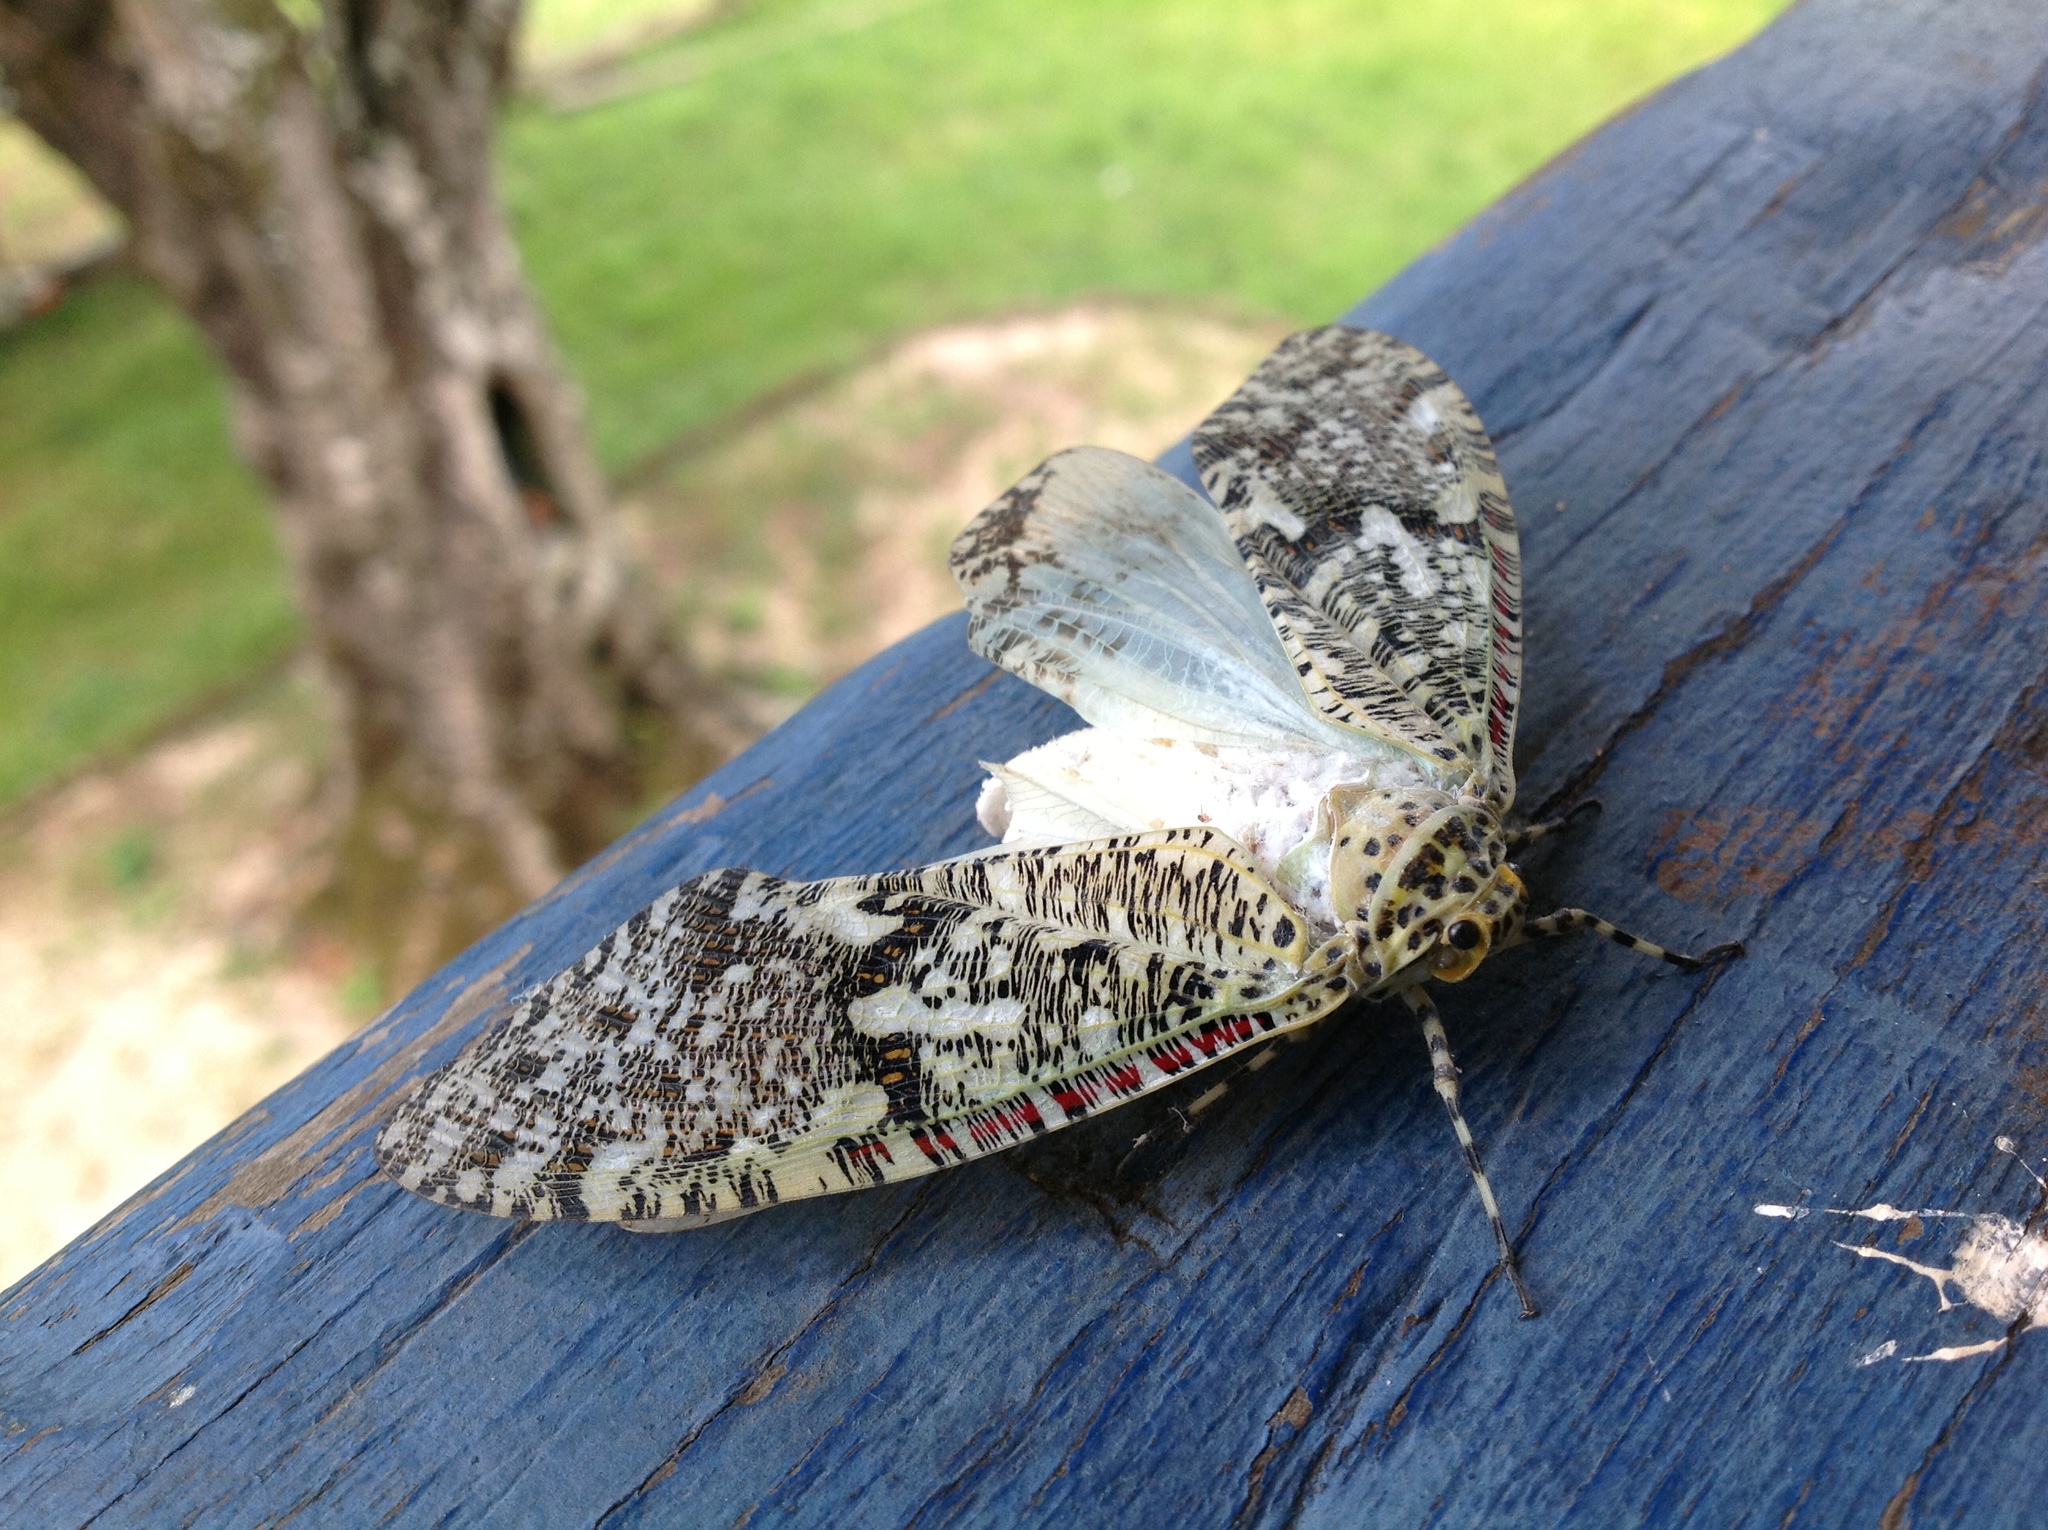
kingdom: Animalia
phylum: Arthropoda
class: Insecta
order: Hemiptera
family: Fulgoridae
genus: Phenax
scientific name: Phenax variegata
